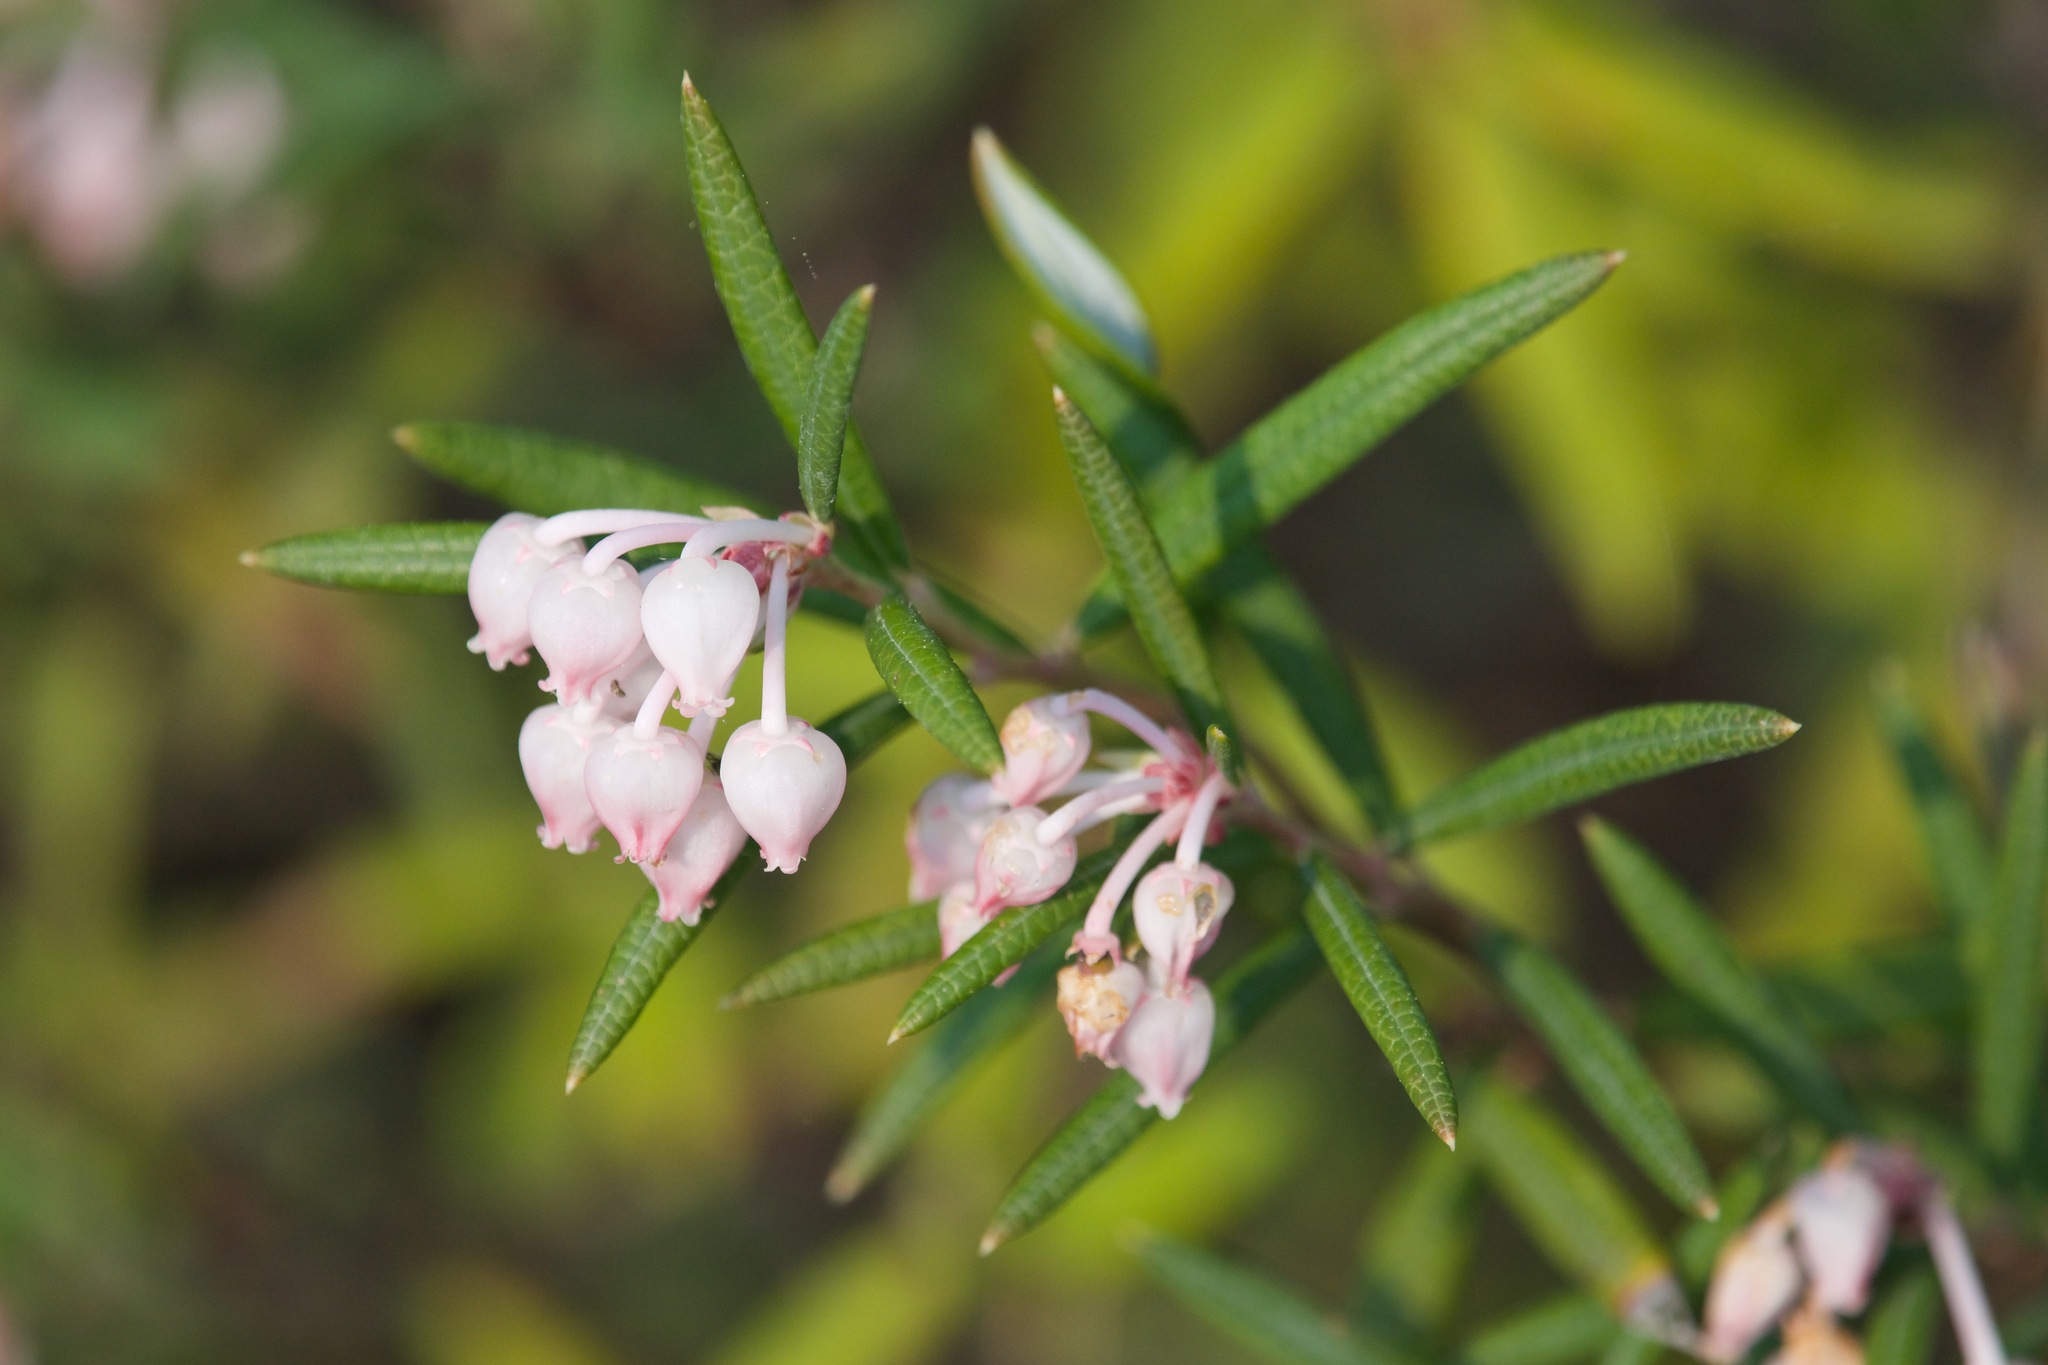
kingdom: Plantae
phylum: Tracheophyta
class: Magnoliopsida
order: Ericales
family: Ericaceae
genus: Andromeda
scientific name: Andromeda polifolia
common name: Bog-rosemary
